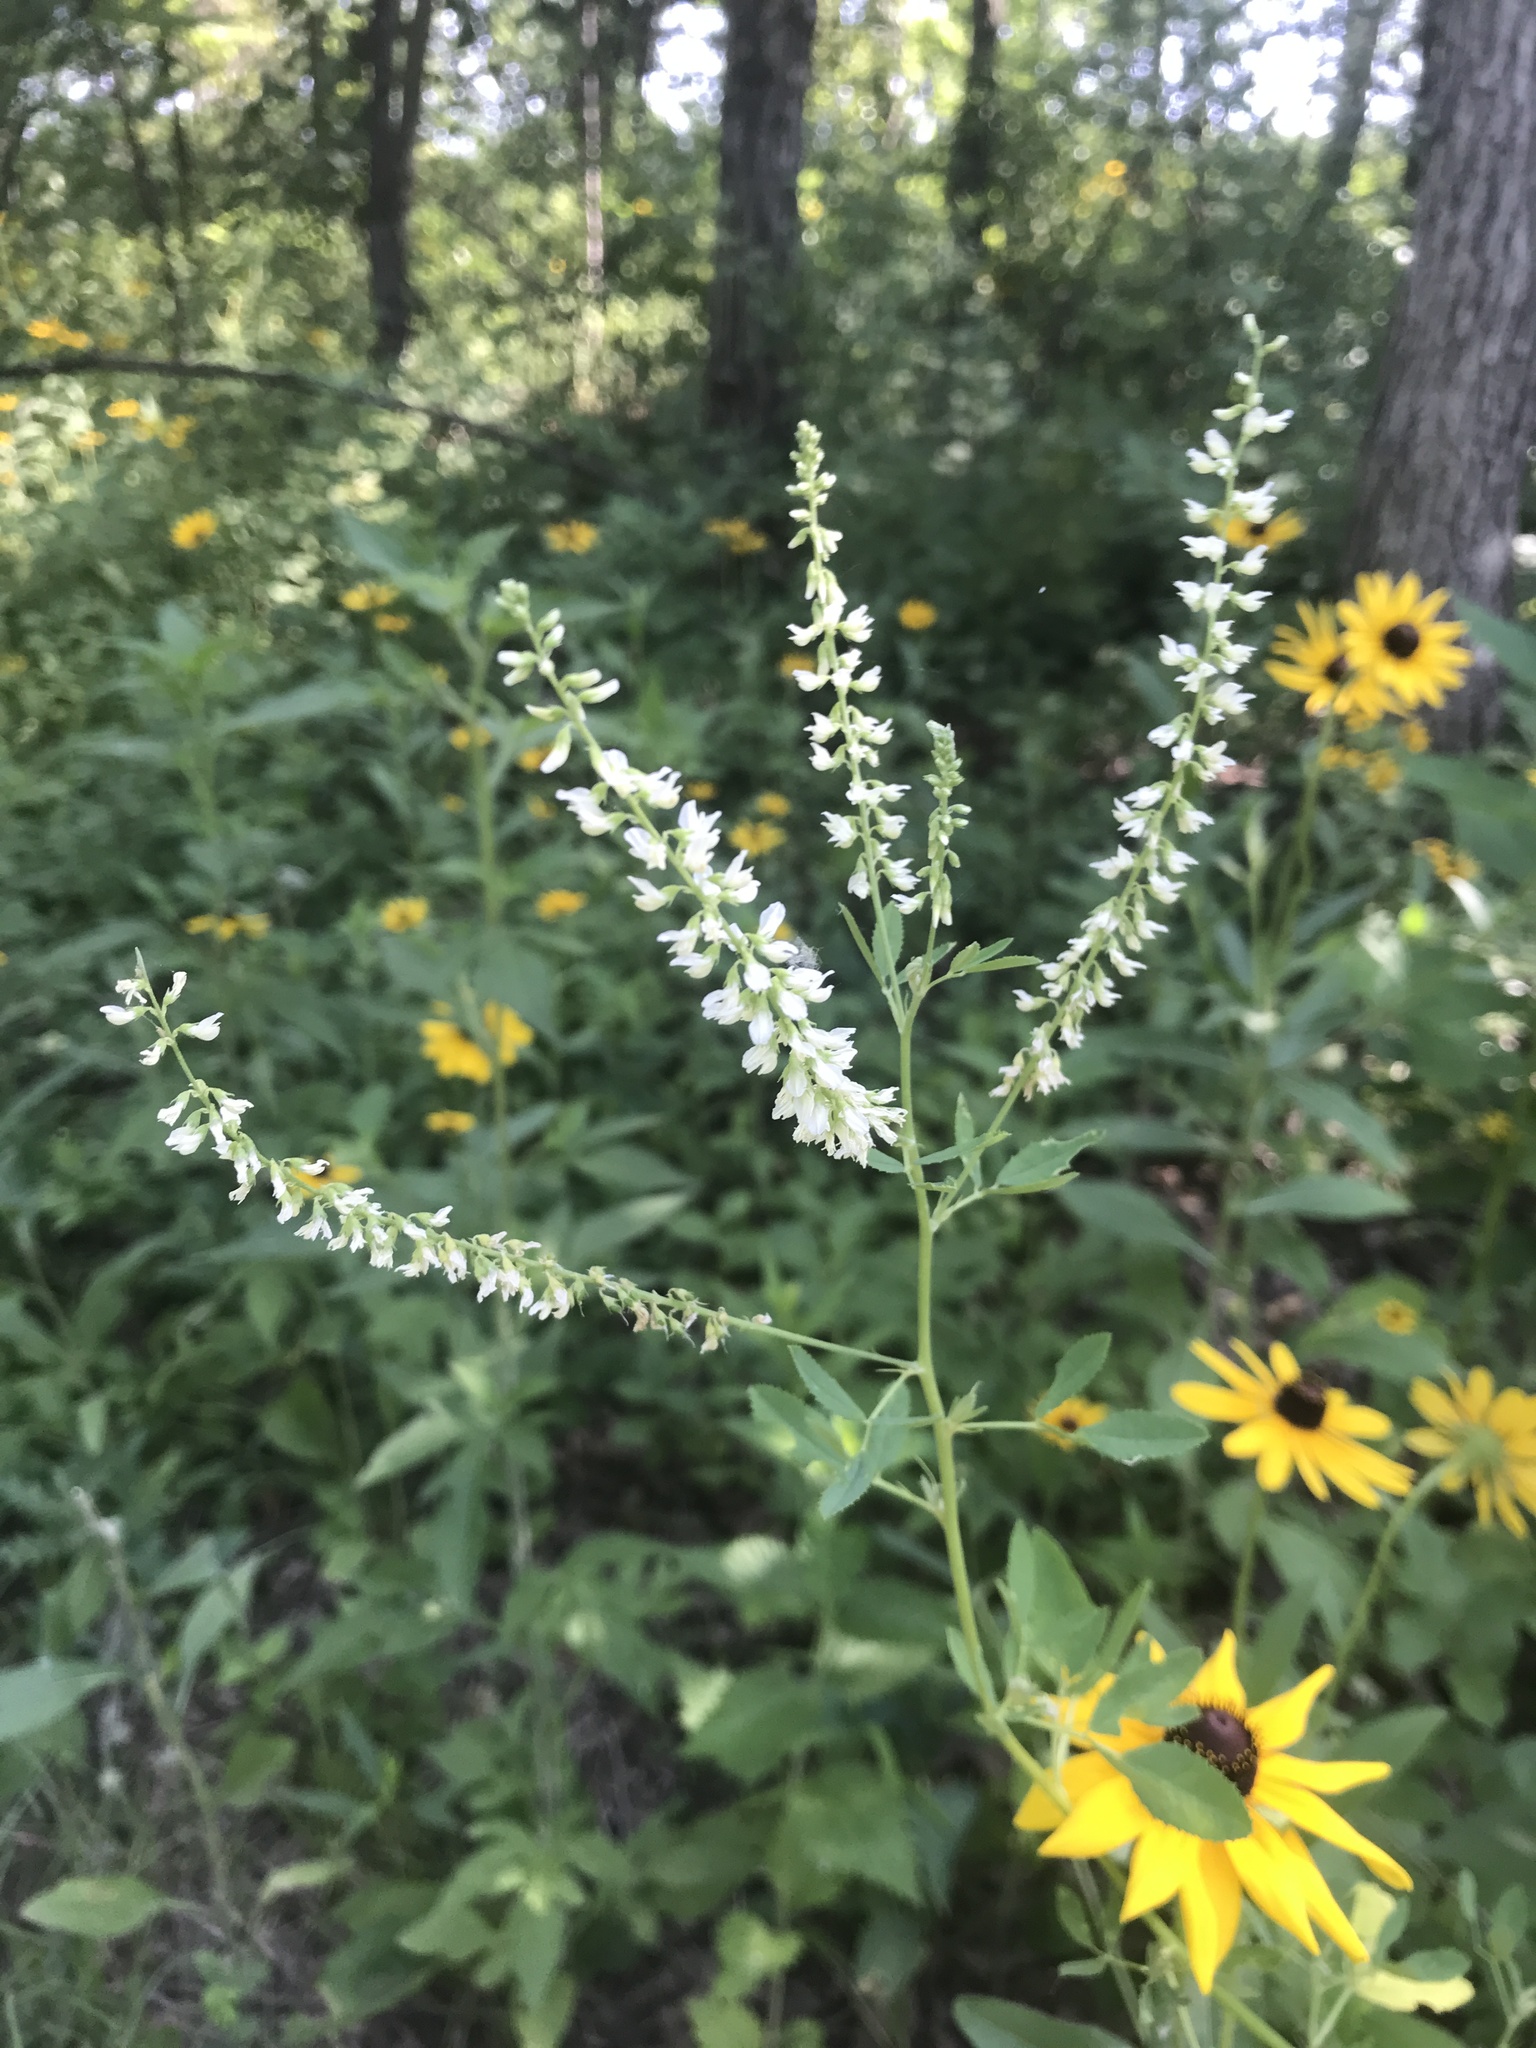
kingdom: Plantae
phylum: Tracheophyta
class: Magnoliopsida
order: Fabales
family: Fabaceae
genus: Melilotus
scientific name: Melilotus albus
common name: White melilot
